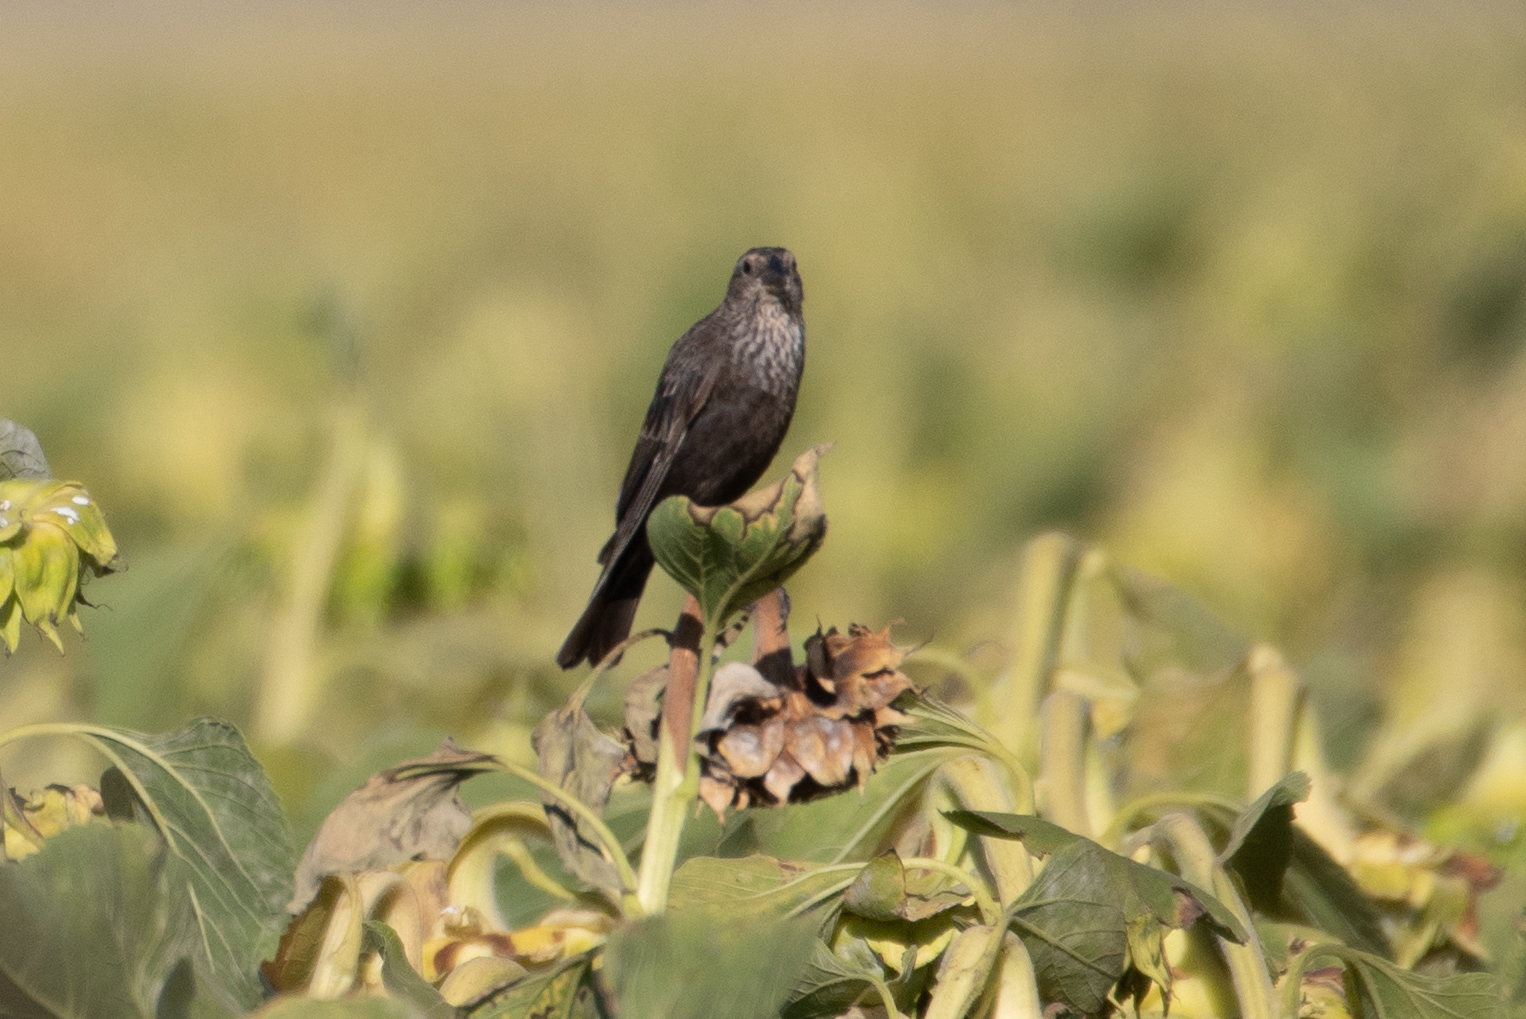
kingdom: Animalia
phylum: Chordata
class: Aves
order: Passeriformes
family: Icteridae
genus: Agelaius
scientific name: Agelaius phoeniceus
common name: Red-winged blackbird
